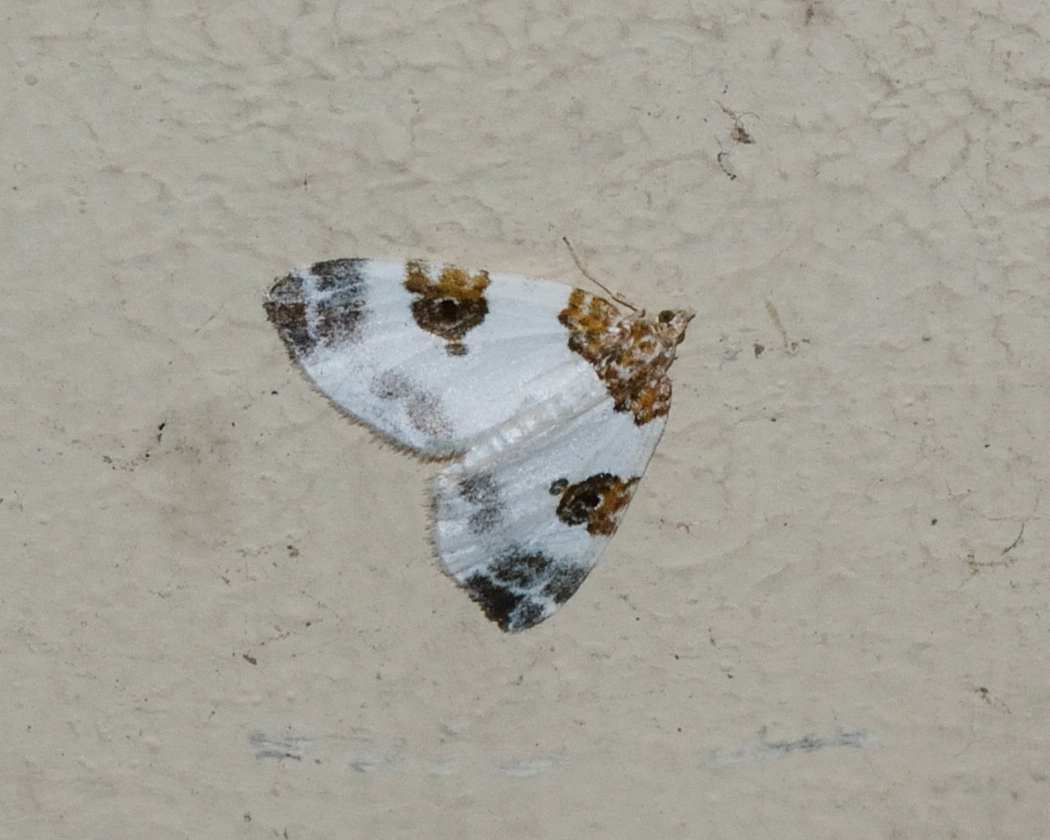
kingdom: Animalia
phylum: Arthropoda
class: Insecta
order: Lepidoptera
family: Geometridae
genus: Plemyria
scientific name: Plemyria rubiginata
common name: Blue-bordered carpet
